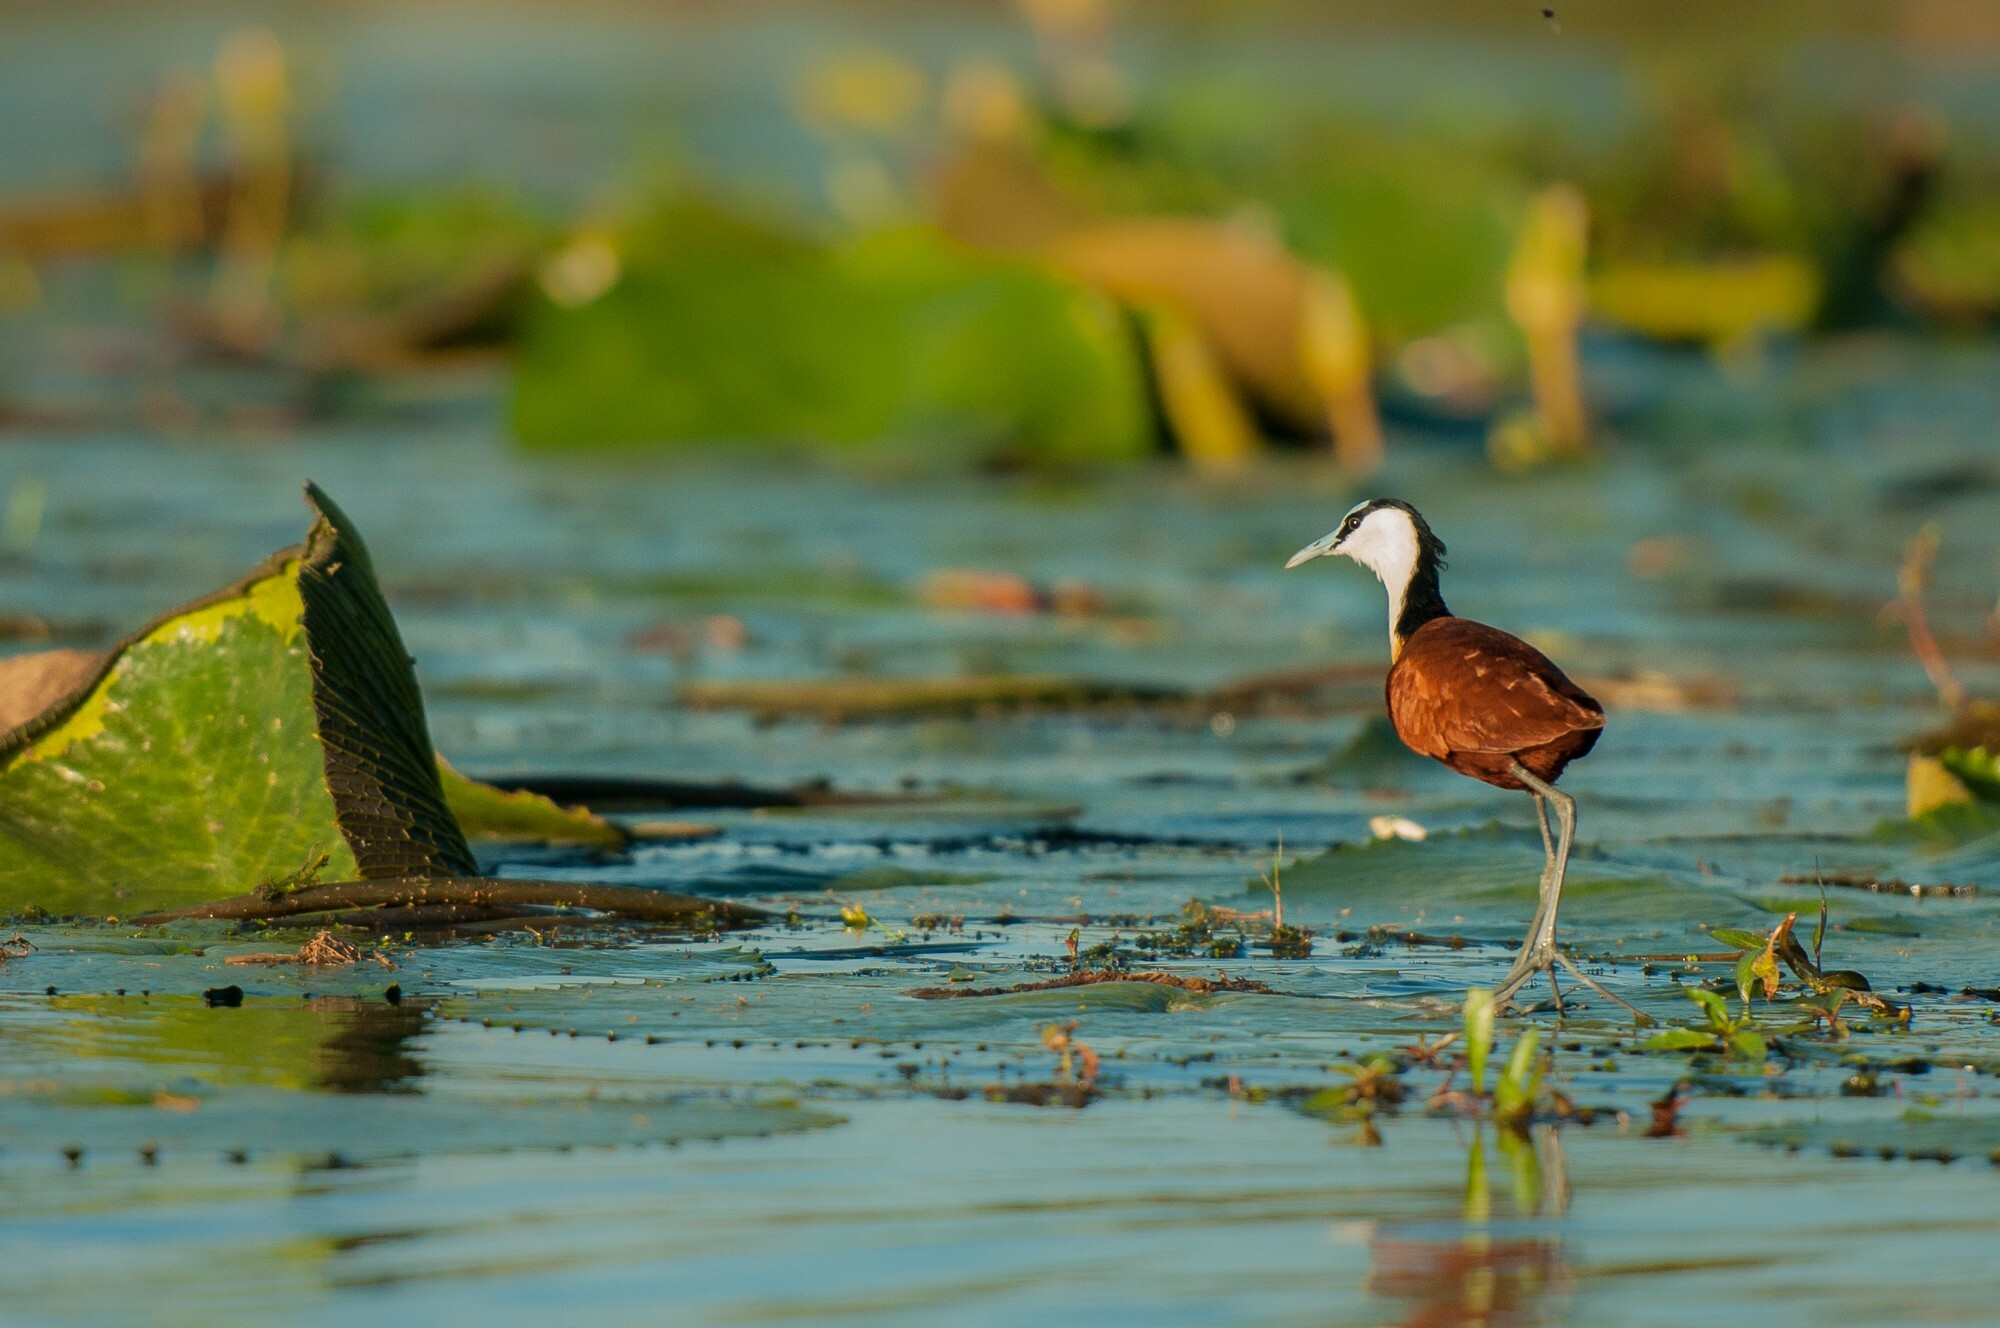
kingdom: Animalia
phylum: Chordata
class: Aves
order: Charadriiformes
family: Jacanidae
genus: Actophilornis
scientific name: Actophilornis africanus
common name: African jacana
